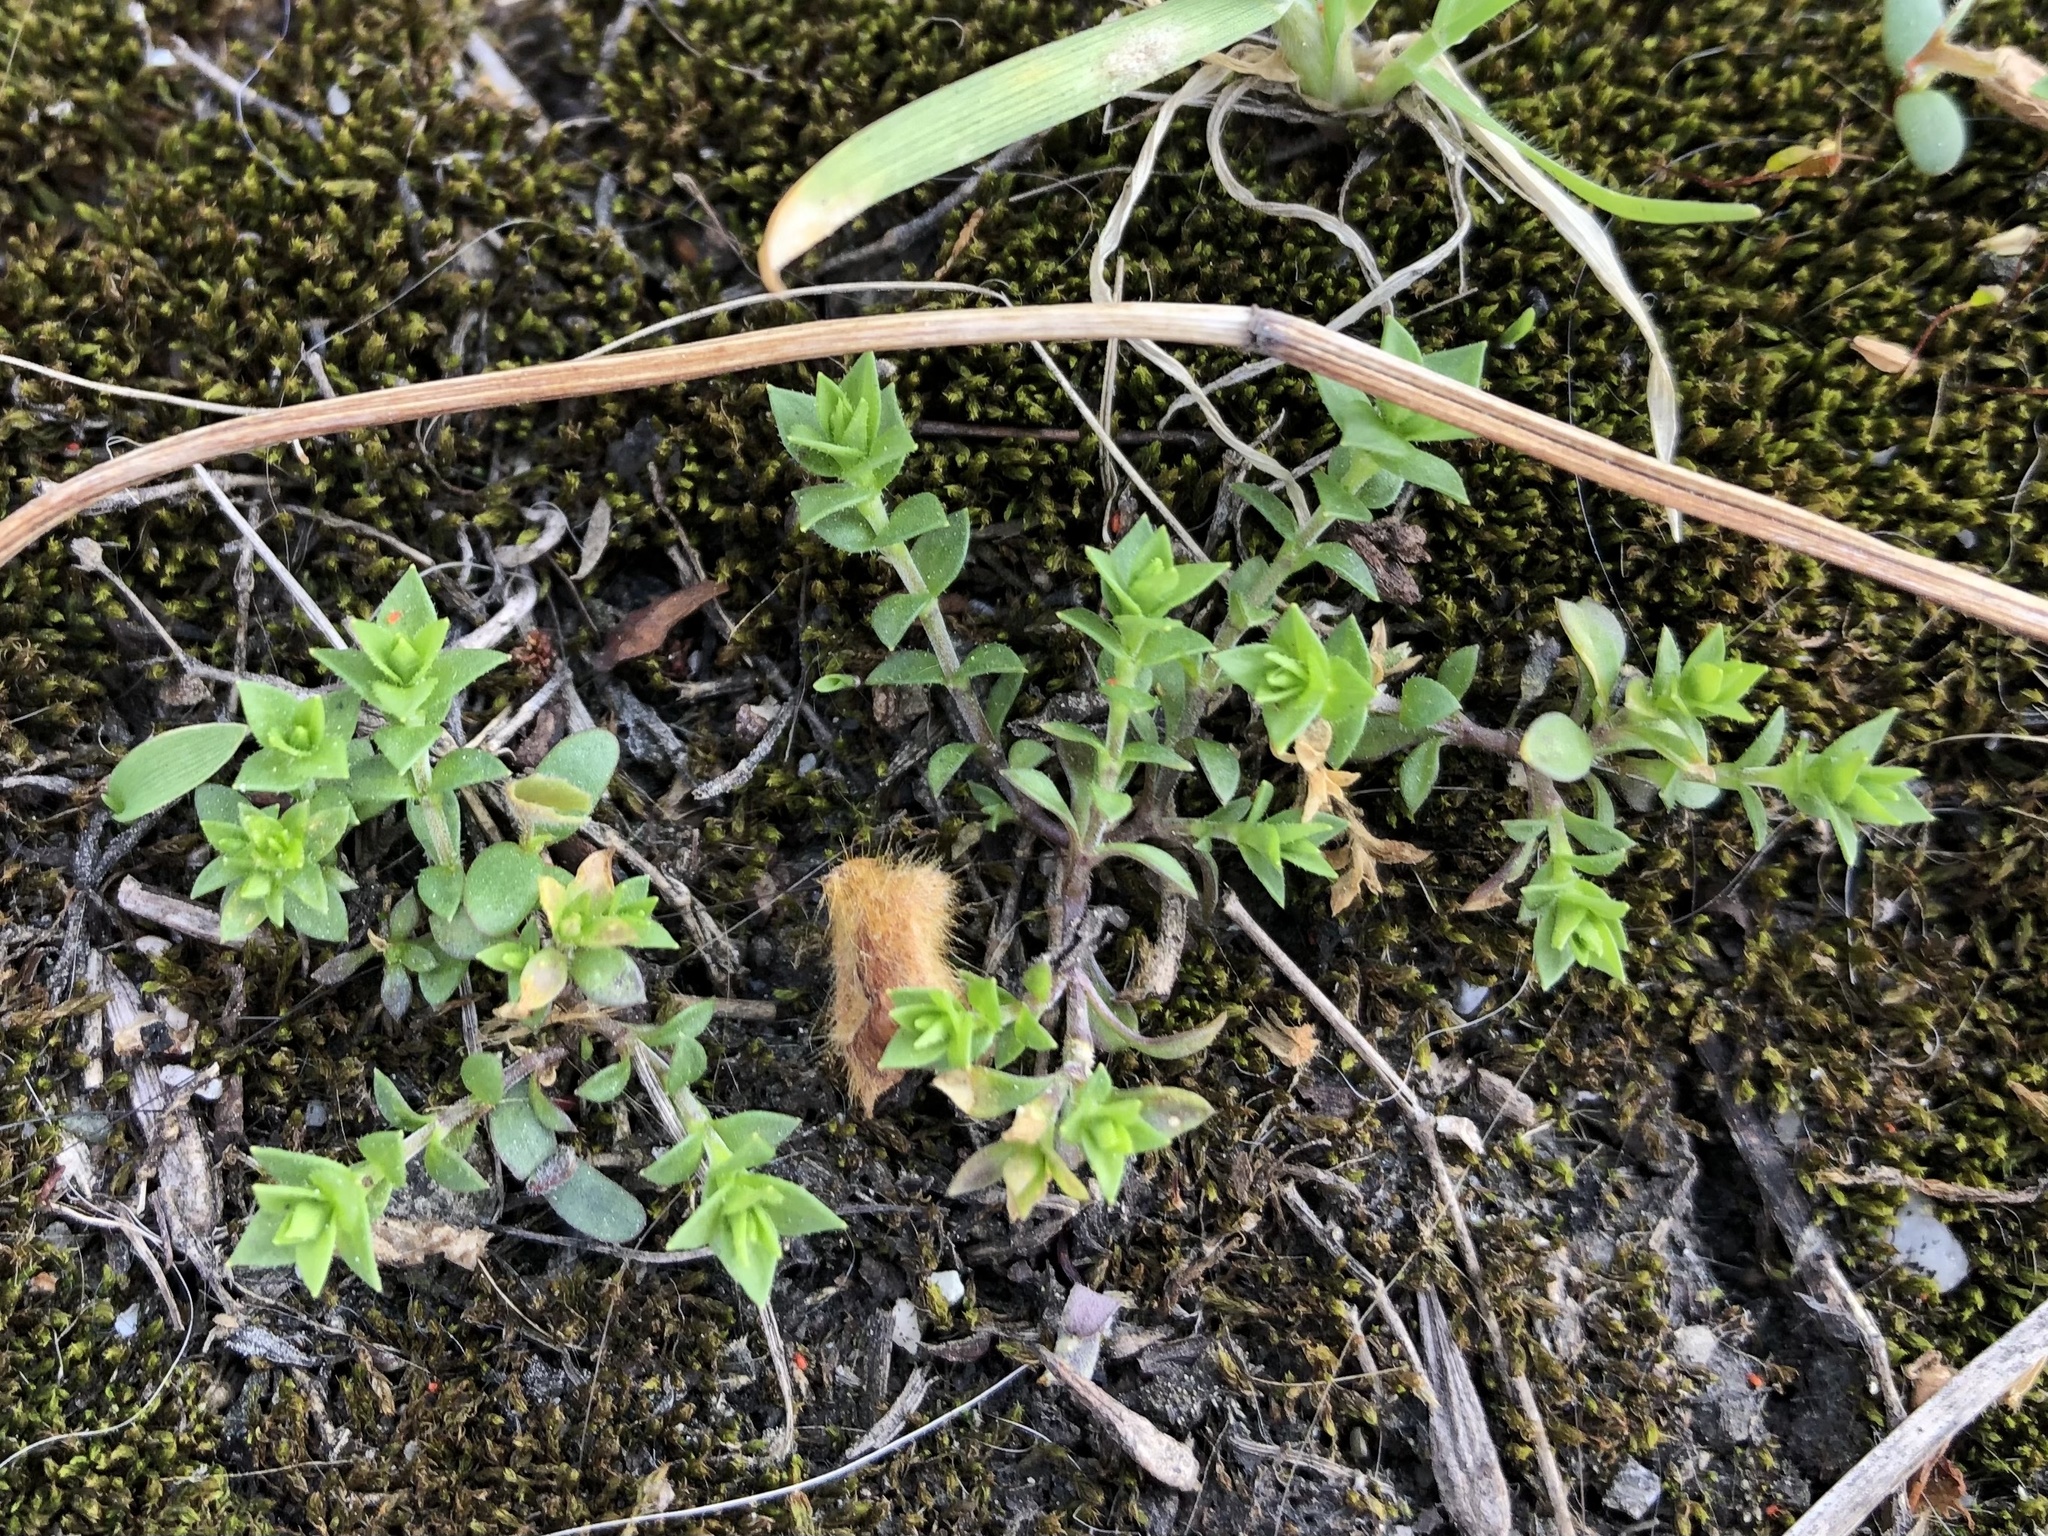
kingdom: Plantae
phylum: Tracheophyta
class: Magnoliopsida
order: Caryophyllales
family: Caryophyllaceae
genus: Arenaria
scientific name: Arenaria serpyllifolia
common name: Thyme-leaved sandwort
